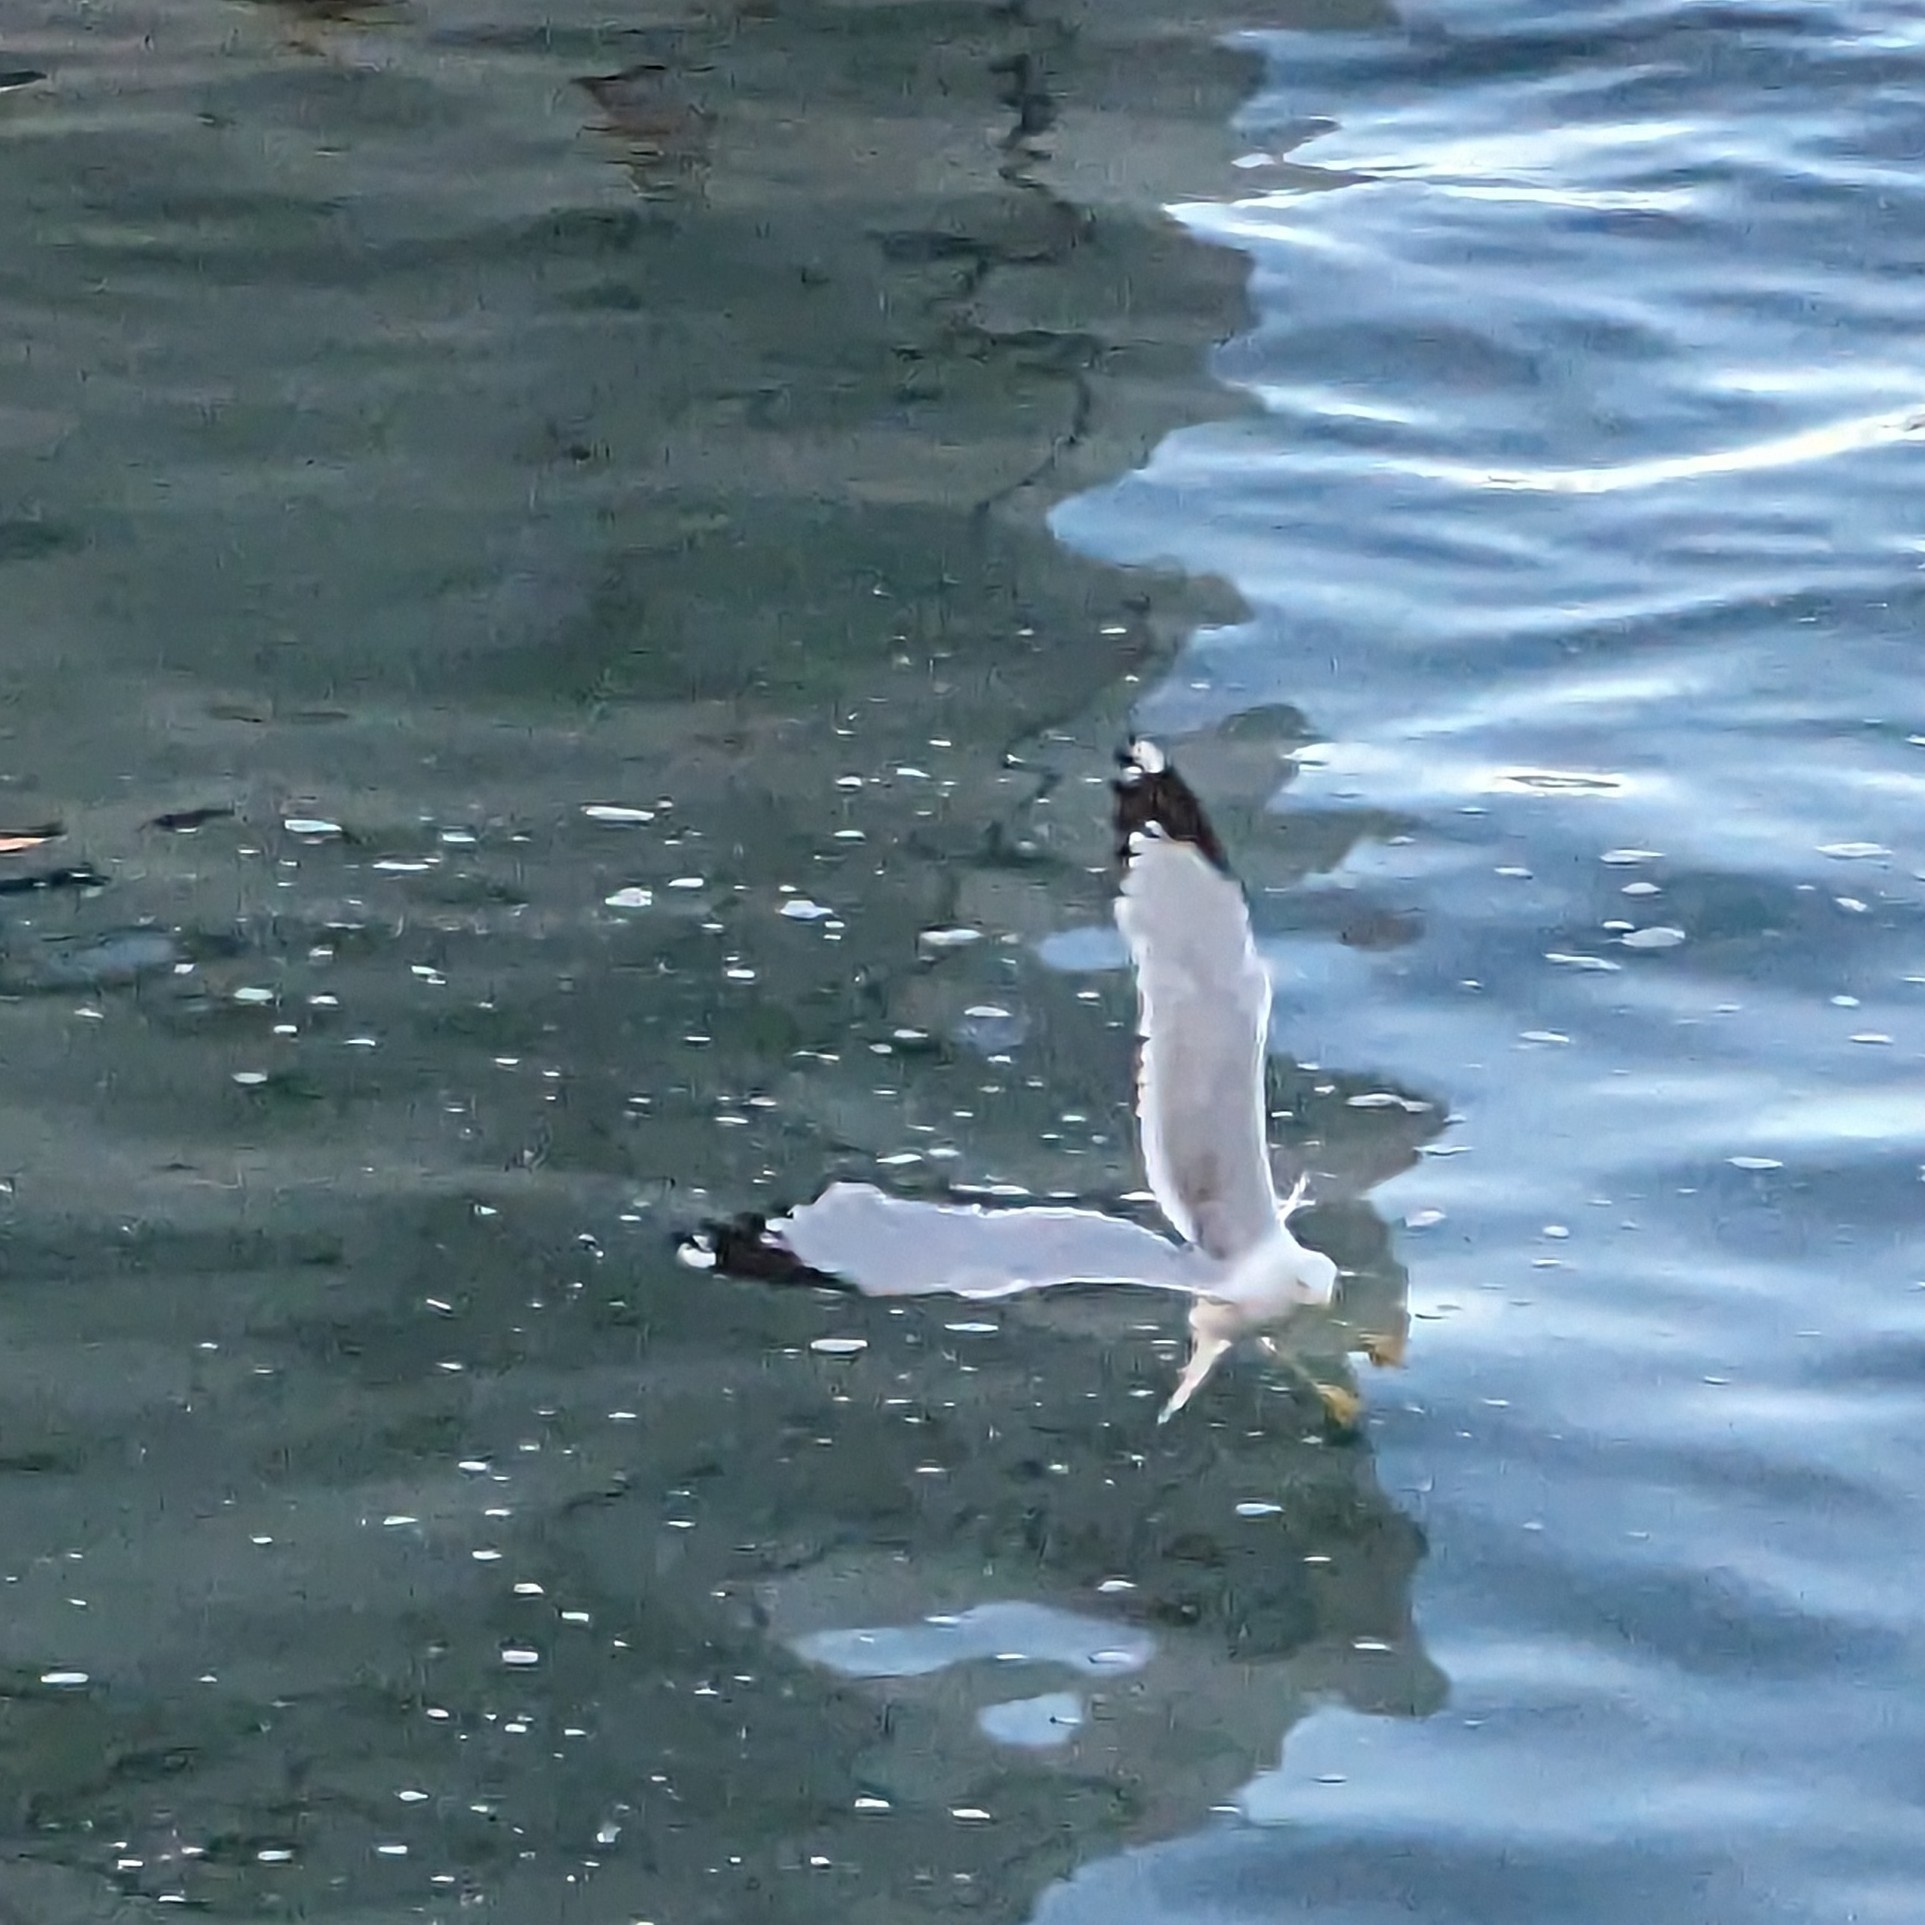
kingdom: Animalia
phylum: Chordata
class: Aves
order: Charadriiformes
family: Laridae
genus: Larus
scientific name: Larus delawarensis
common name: Ring-billed gull
